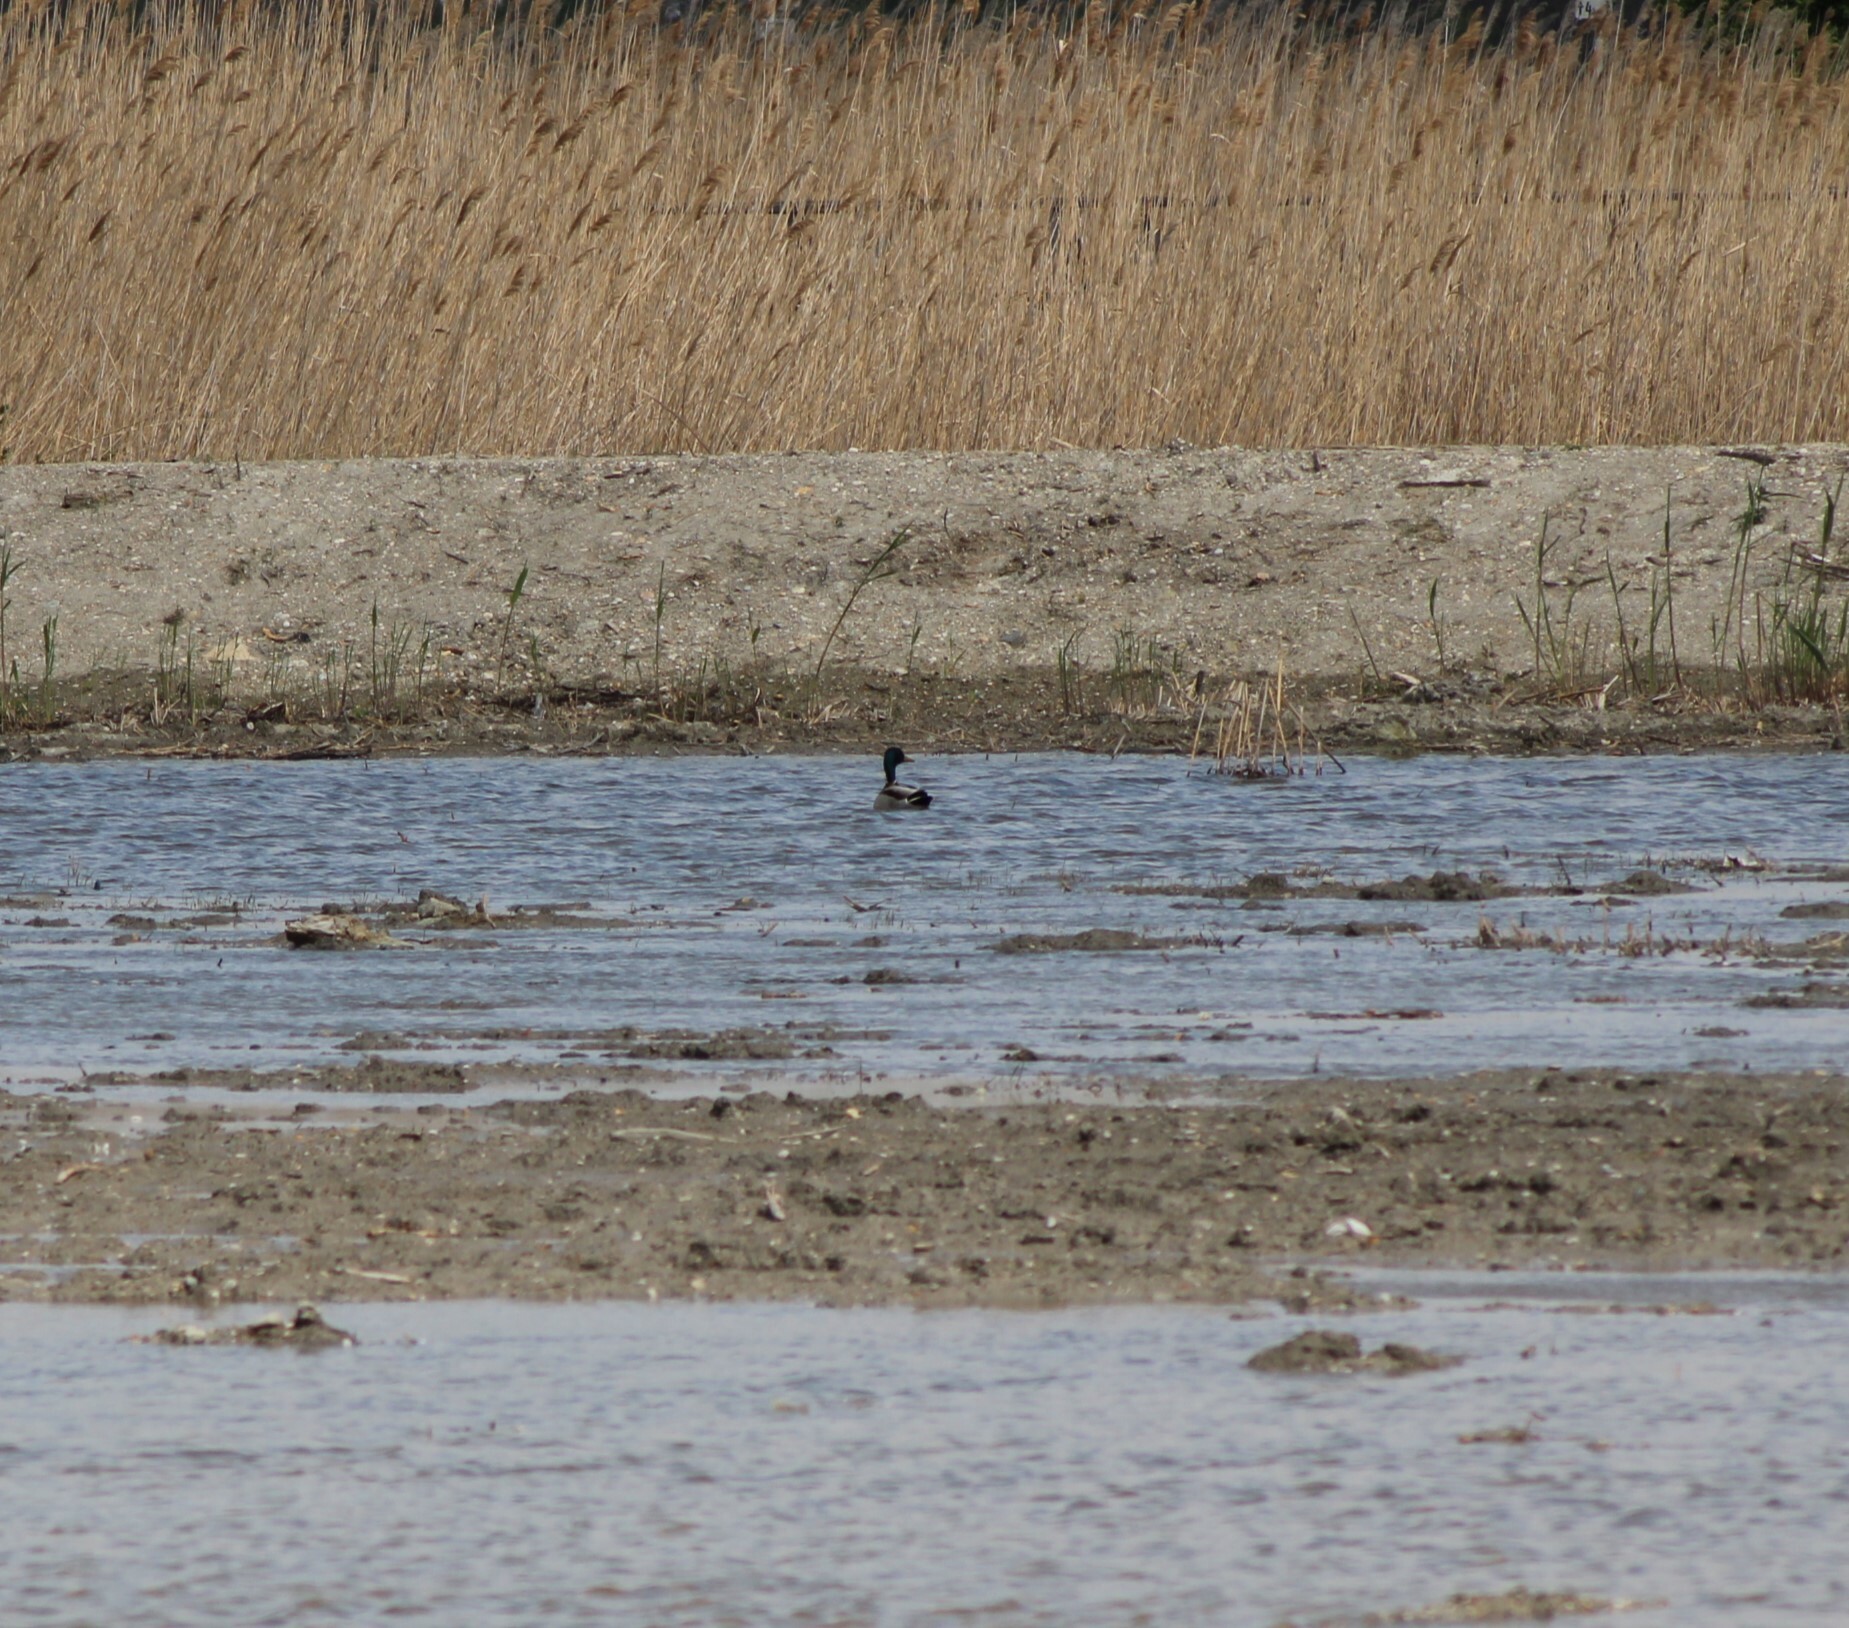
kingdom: Animalia
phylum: Chordata
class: Aves
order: Anseriformes
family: Anatidae
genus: Anas
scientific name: Anas platyrhynchos
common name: Mallard
